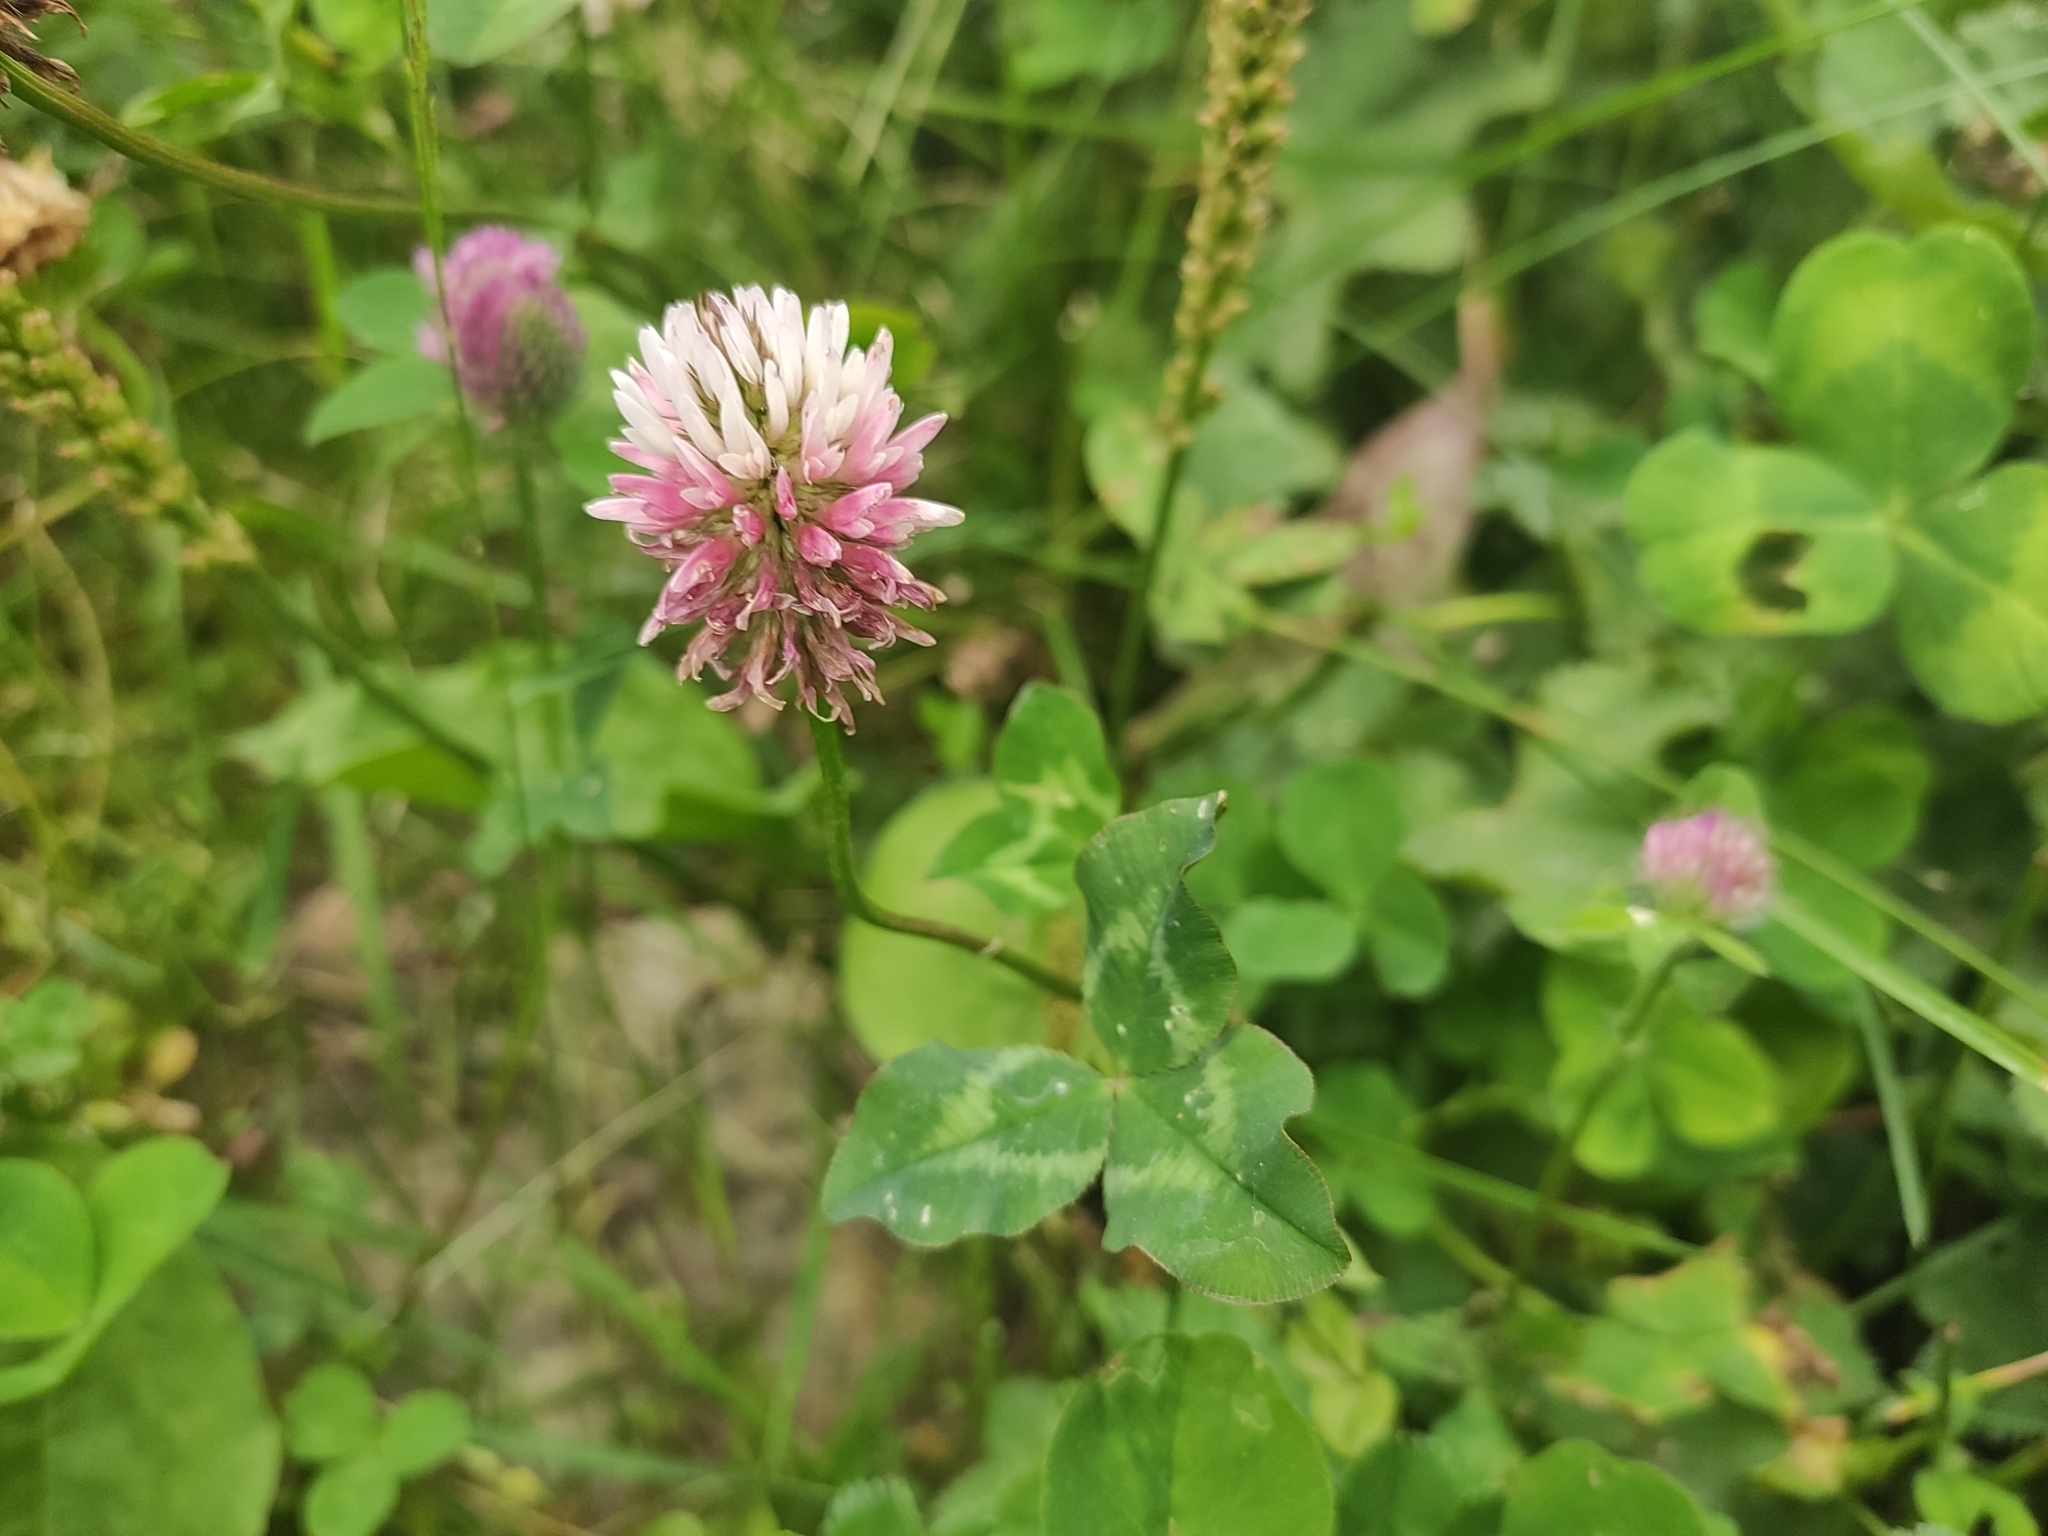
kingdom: Plantae
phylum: Tracheophyta
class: Magnoliopsida
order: Fabales
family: Fabaceae
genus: Trifolium
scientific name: Trifolium ambiguum
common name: Kura clover
